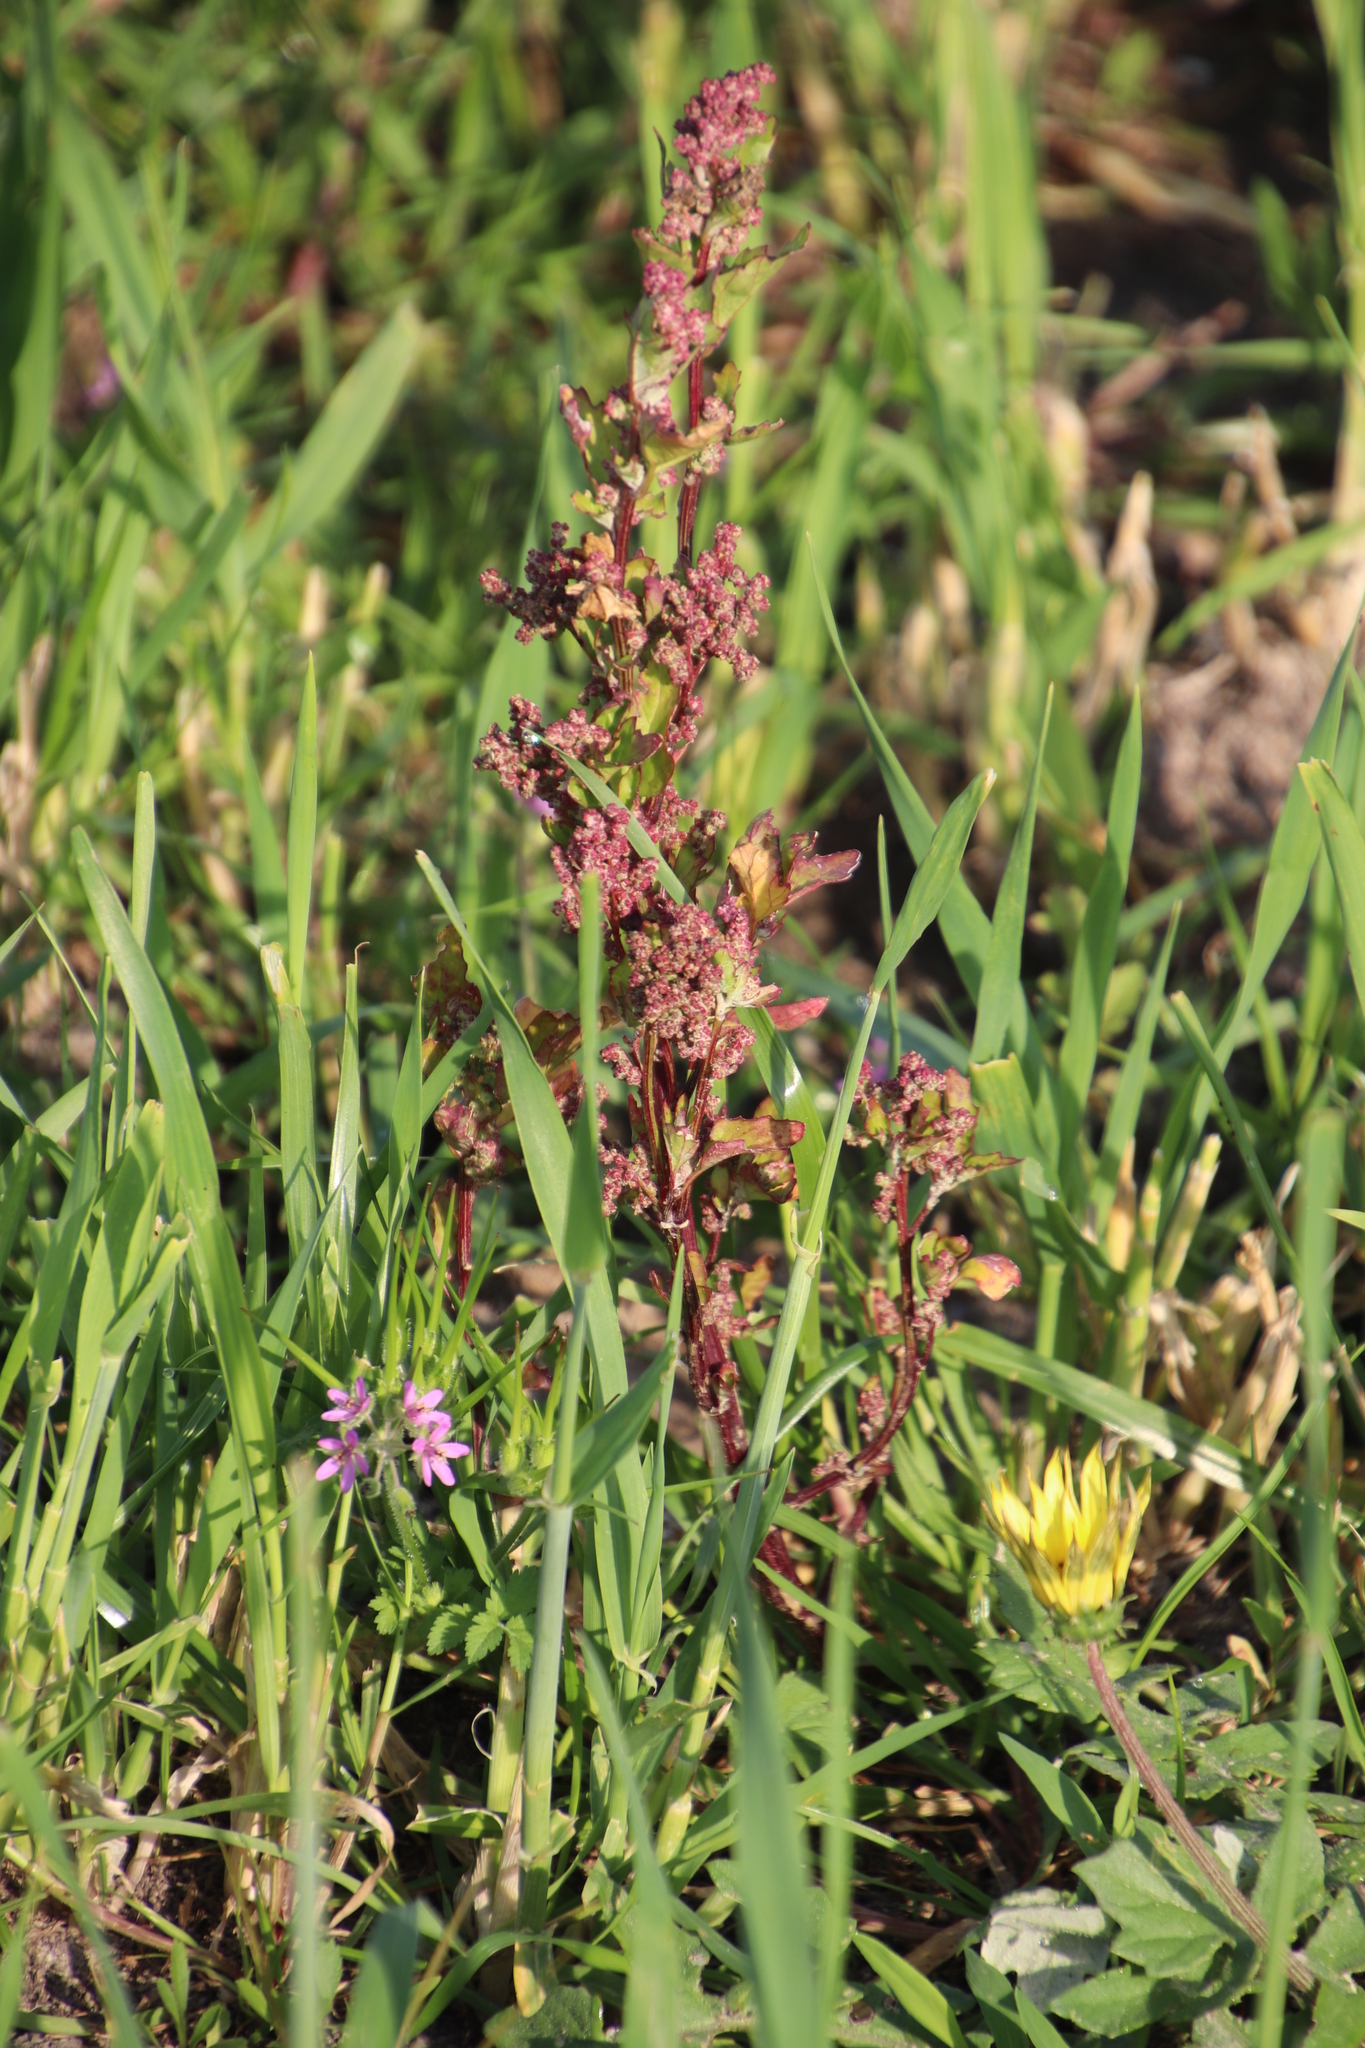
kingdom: Plantae
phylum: Tracheophyta
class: Magnoliopsida
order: Caryophyllales
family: Amaranthaceae
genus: Chenopodiastrum
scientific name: Chenopodiastrum murale
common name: Sowbane
